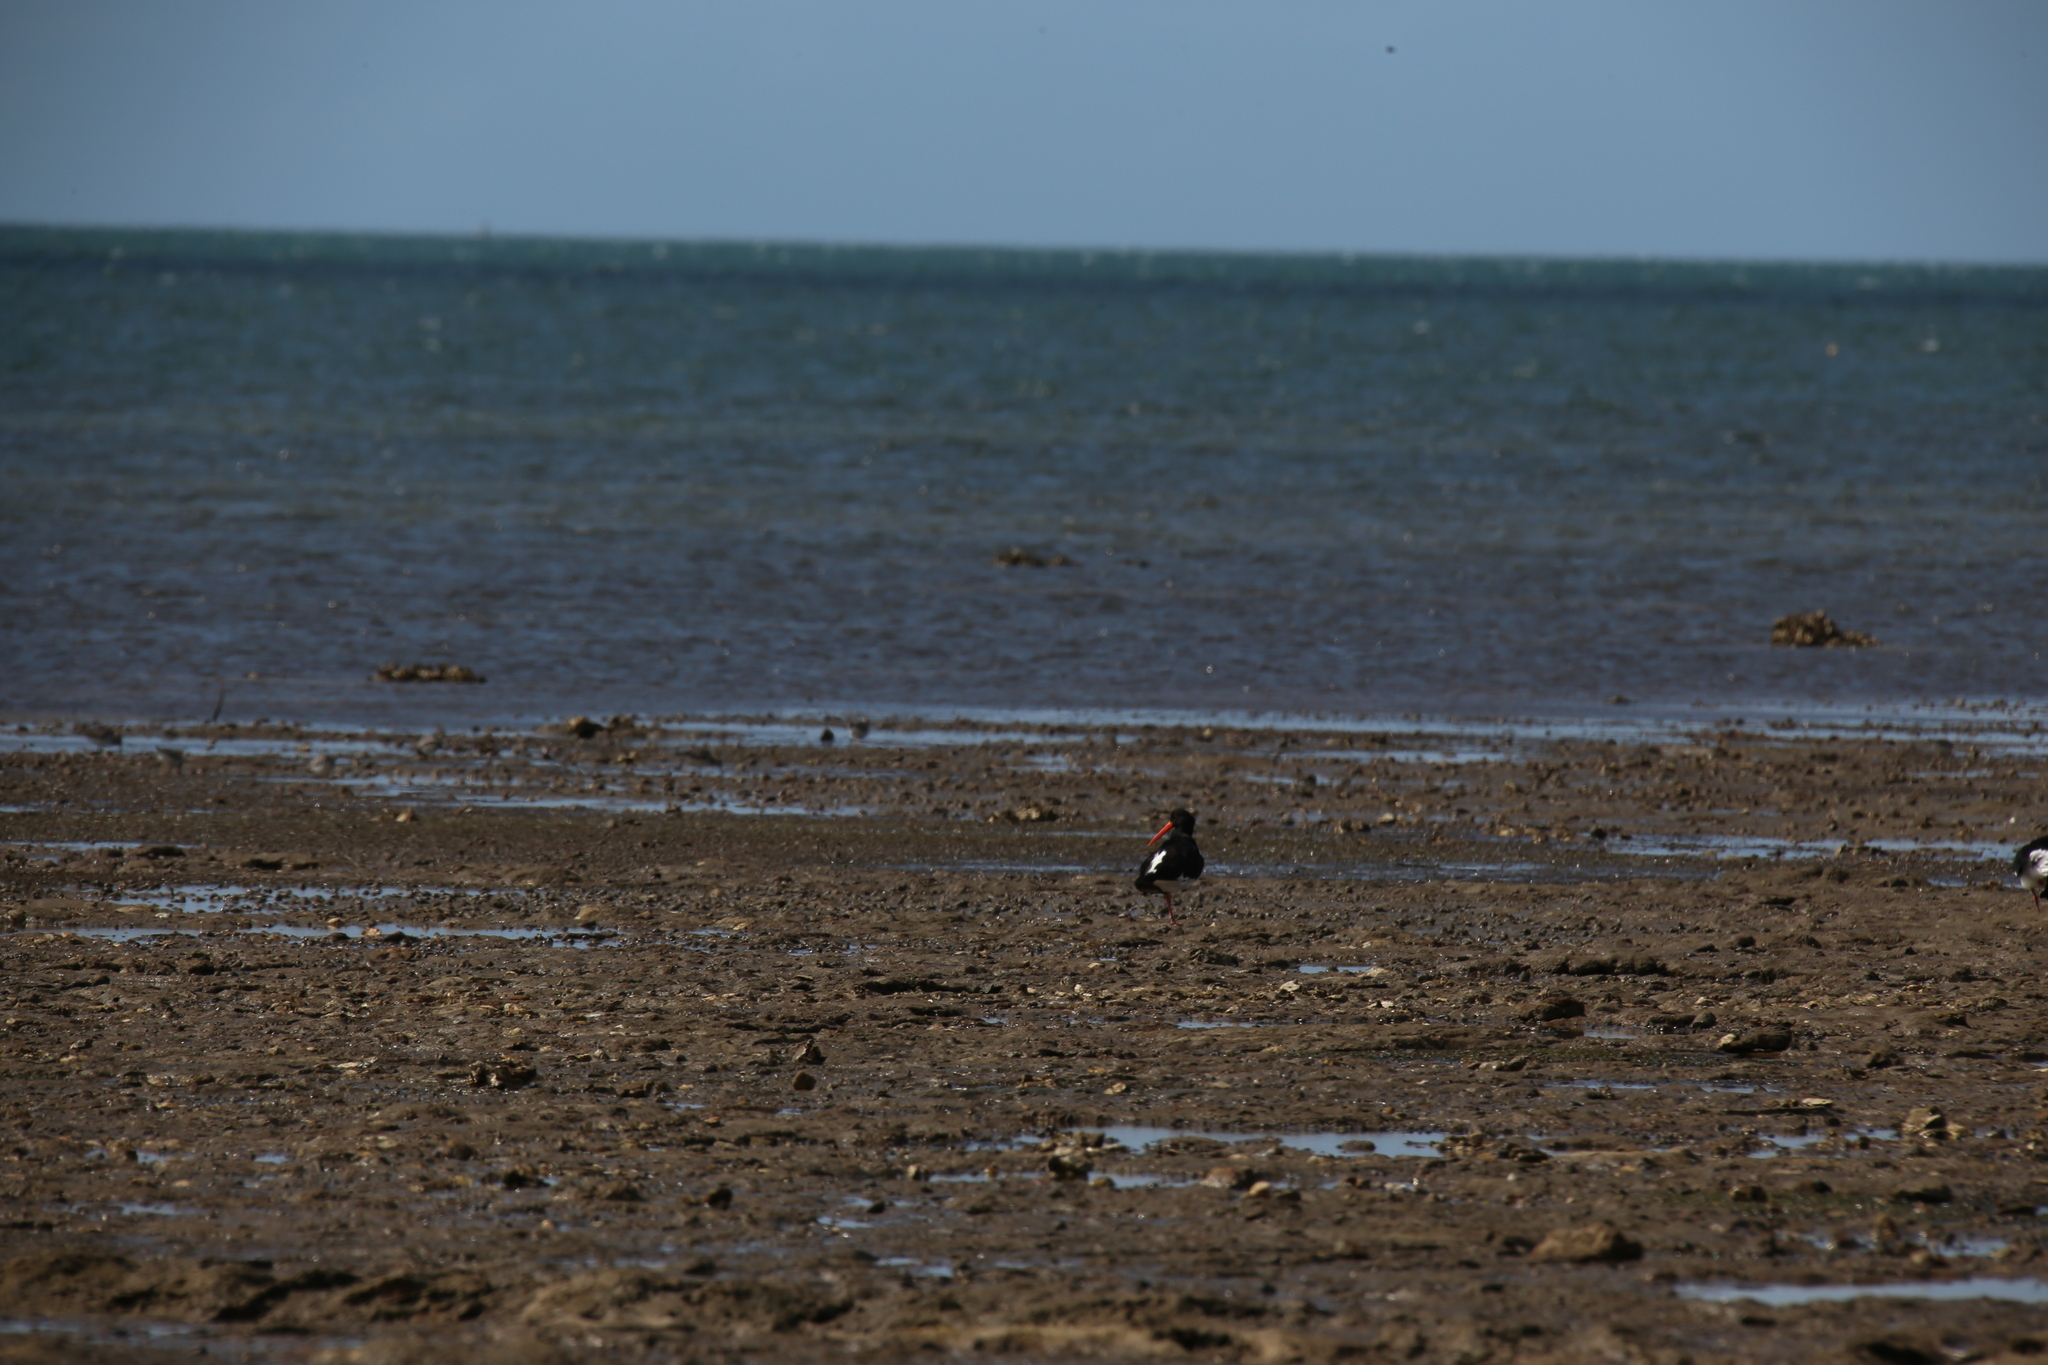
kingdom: Animalia
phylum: Chordata
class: Aves
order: Charadriiformes
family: Haematopodidae
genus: Haematopus
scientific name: Haematopus longirostris
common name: Pied oystercatcher
